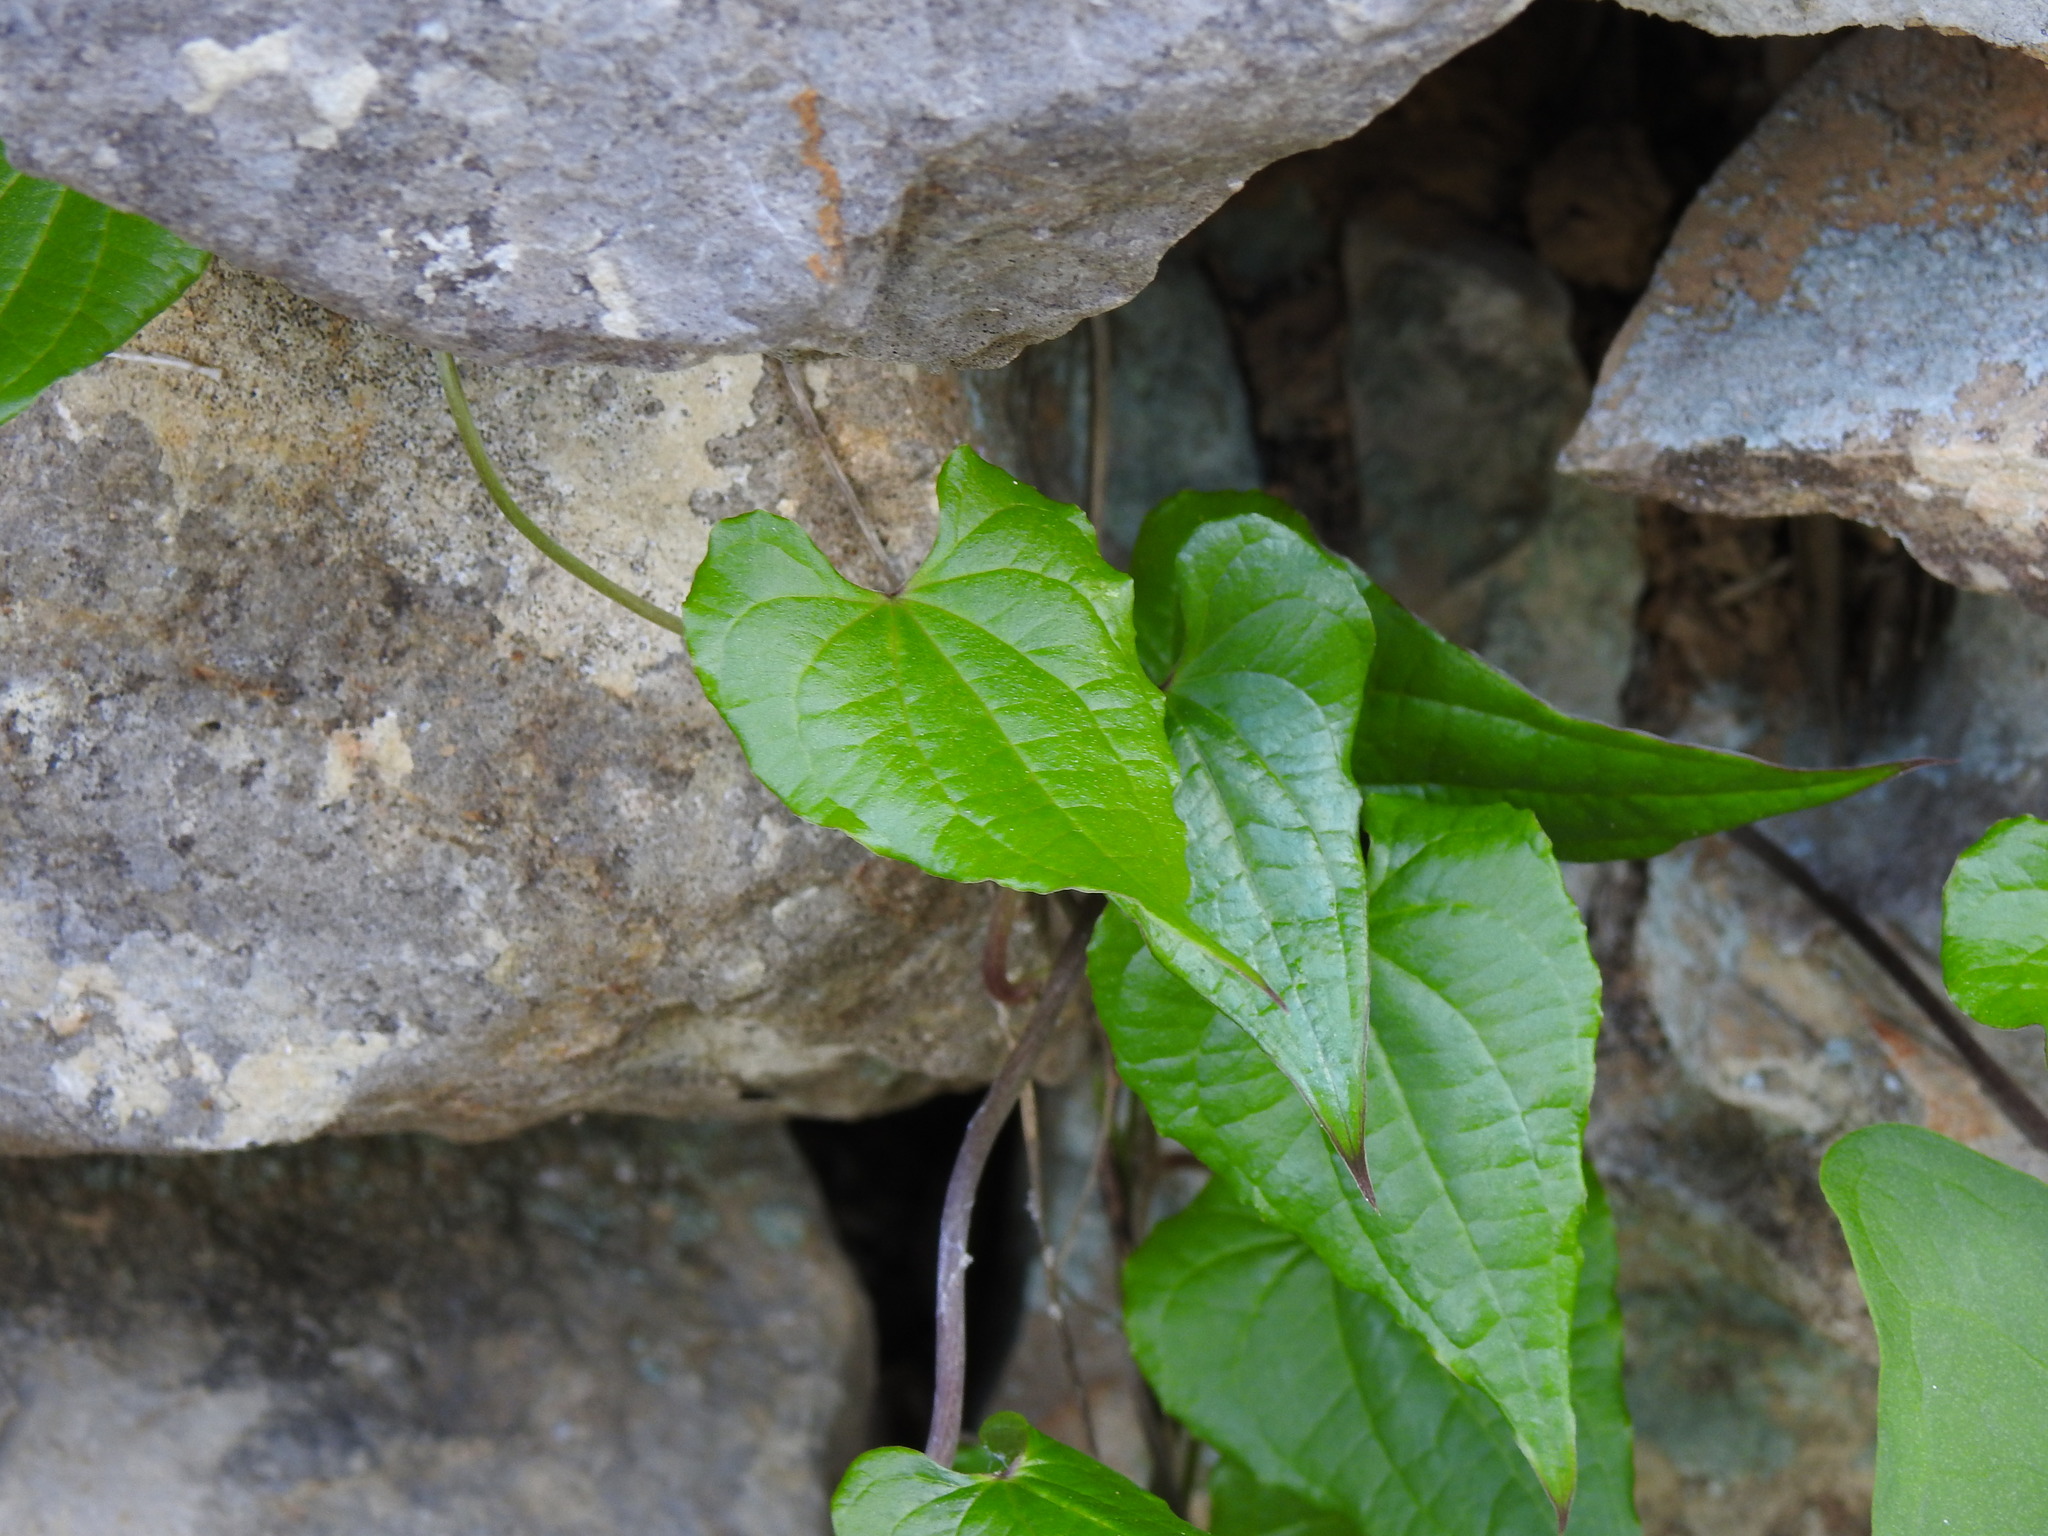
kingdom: Plantae
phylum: Tracheophyta
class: Liliopsida
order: Dioscoreales
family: Dioscoreaceae
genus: Dioscorea
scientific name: Dioscorea communis
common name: Black-bindweed
